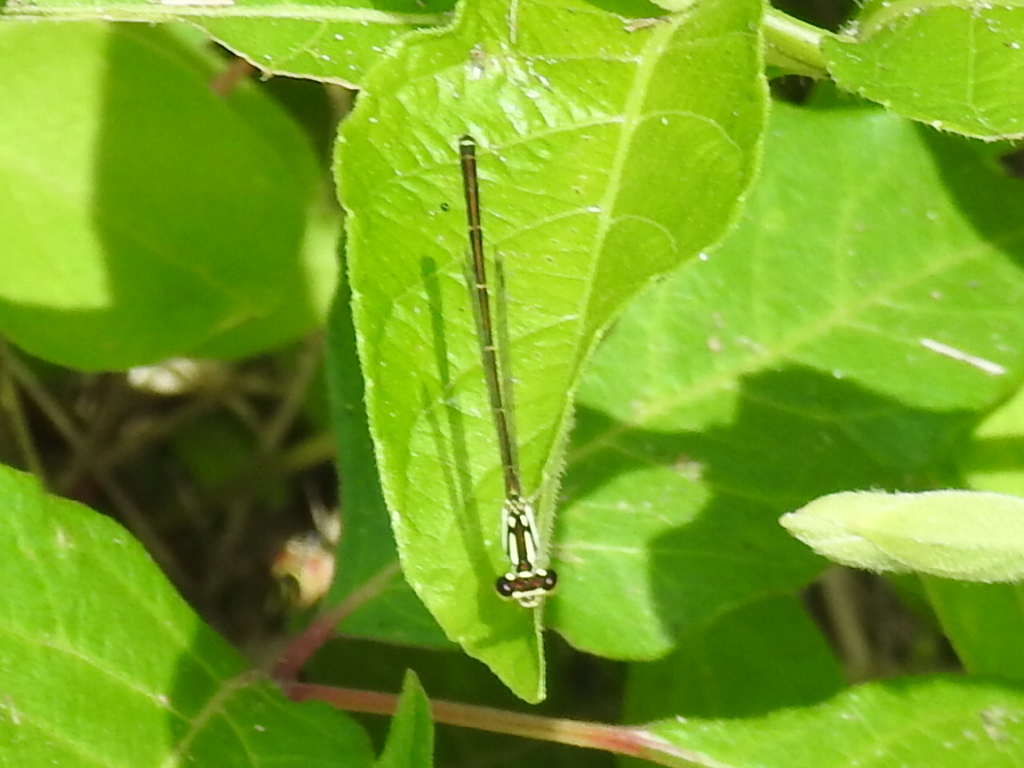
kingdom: Animalia
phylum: Arthropoda
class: Insecta
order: Odonata
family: Coenagrionidae
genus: Ischnura
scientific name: Ischnura posita
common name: Fragile forktail
